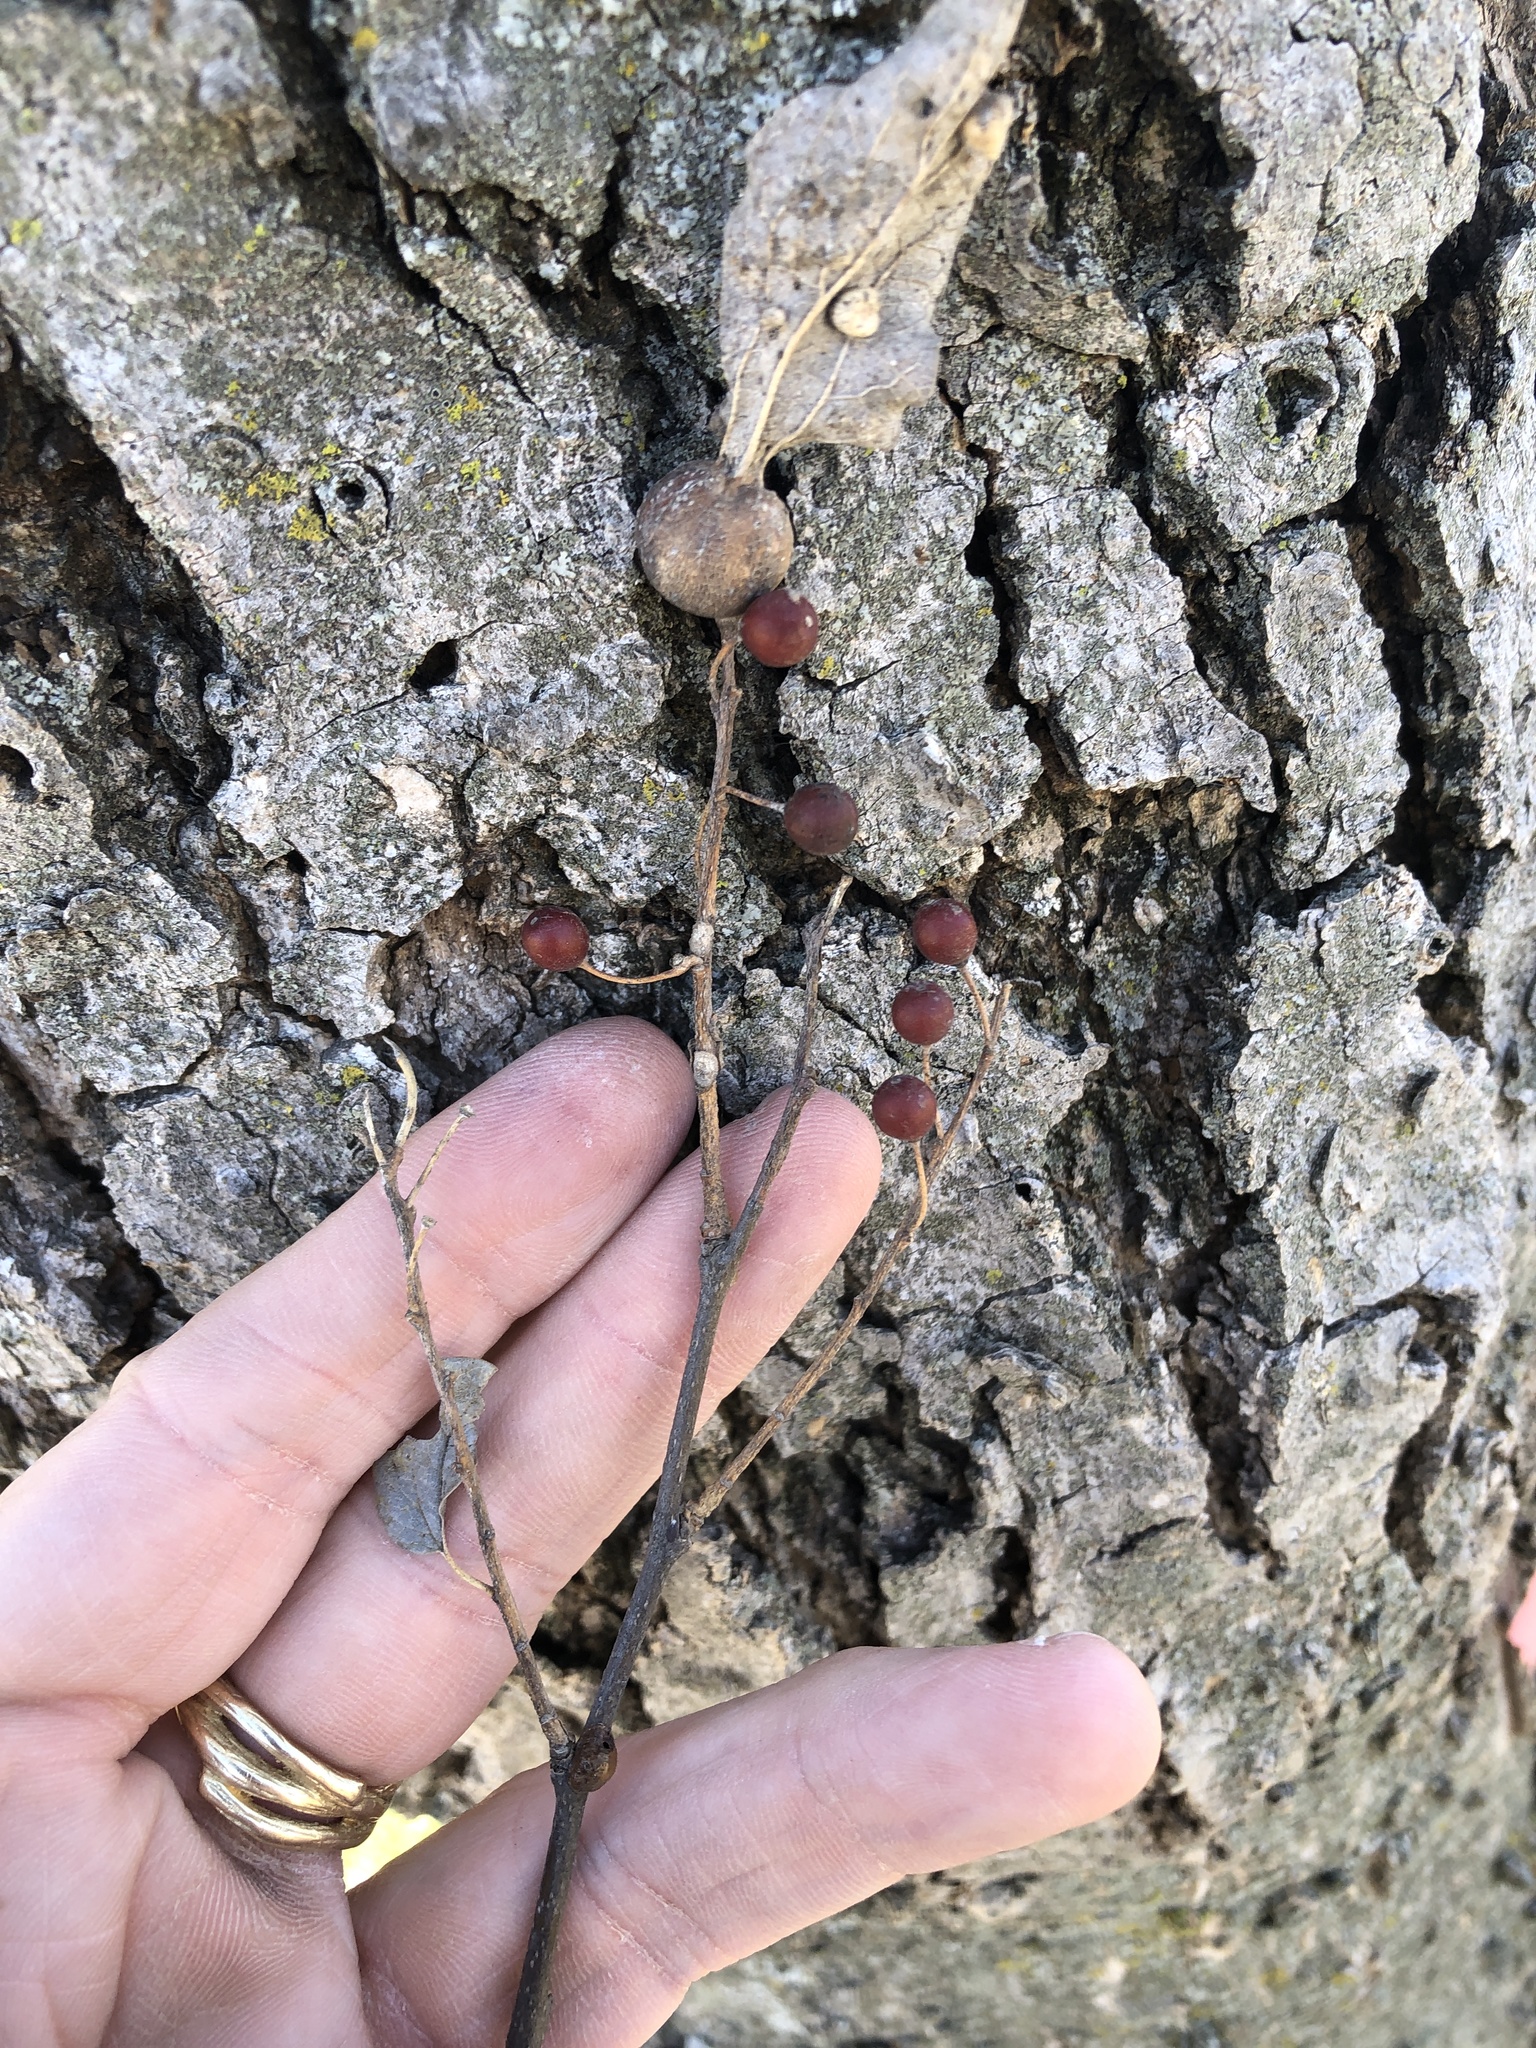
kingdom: Plantae
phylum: Tracheophyta
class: Magnoliopsida
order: Rosales
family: Cannabaceae
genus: Celtis
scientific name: Celtis laevigata
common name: Sugarberry
